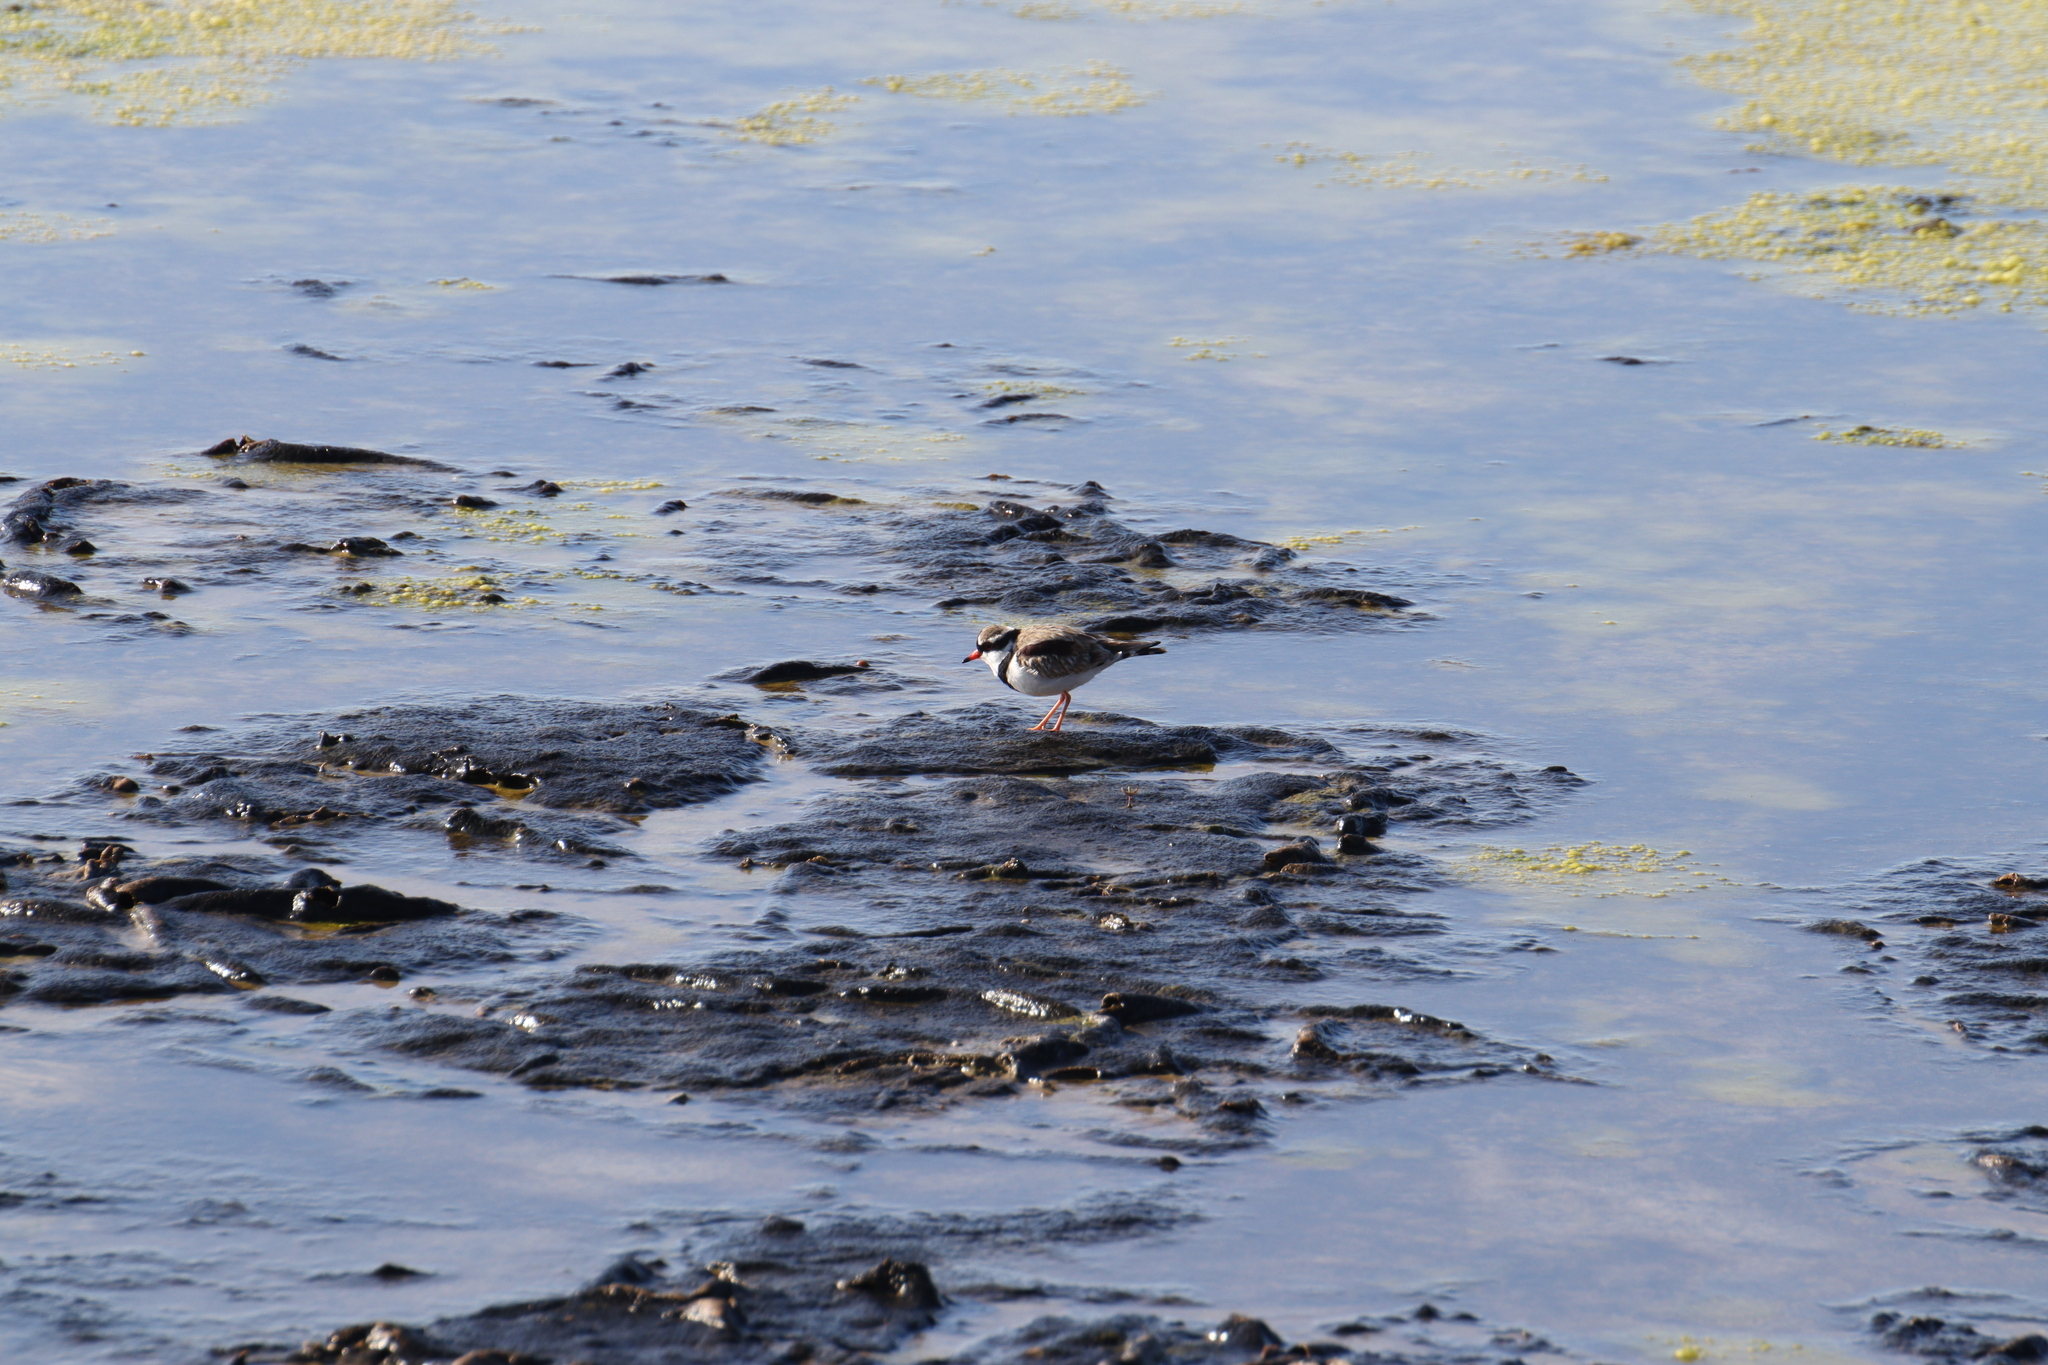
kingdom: Animalia
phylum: Chordata
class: Aves
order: Charadriiformes
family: Charadriidae
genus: Elseyornis
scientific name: Elseyornis melanops
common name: Black-fronted dotterel
